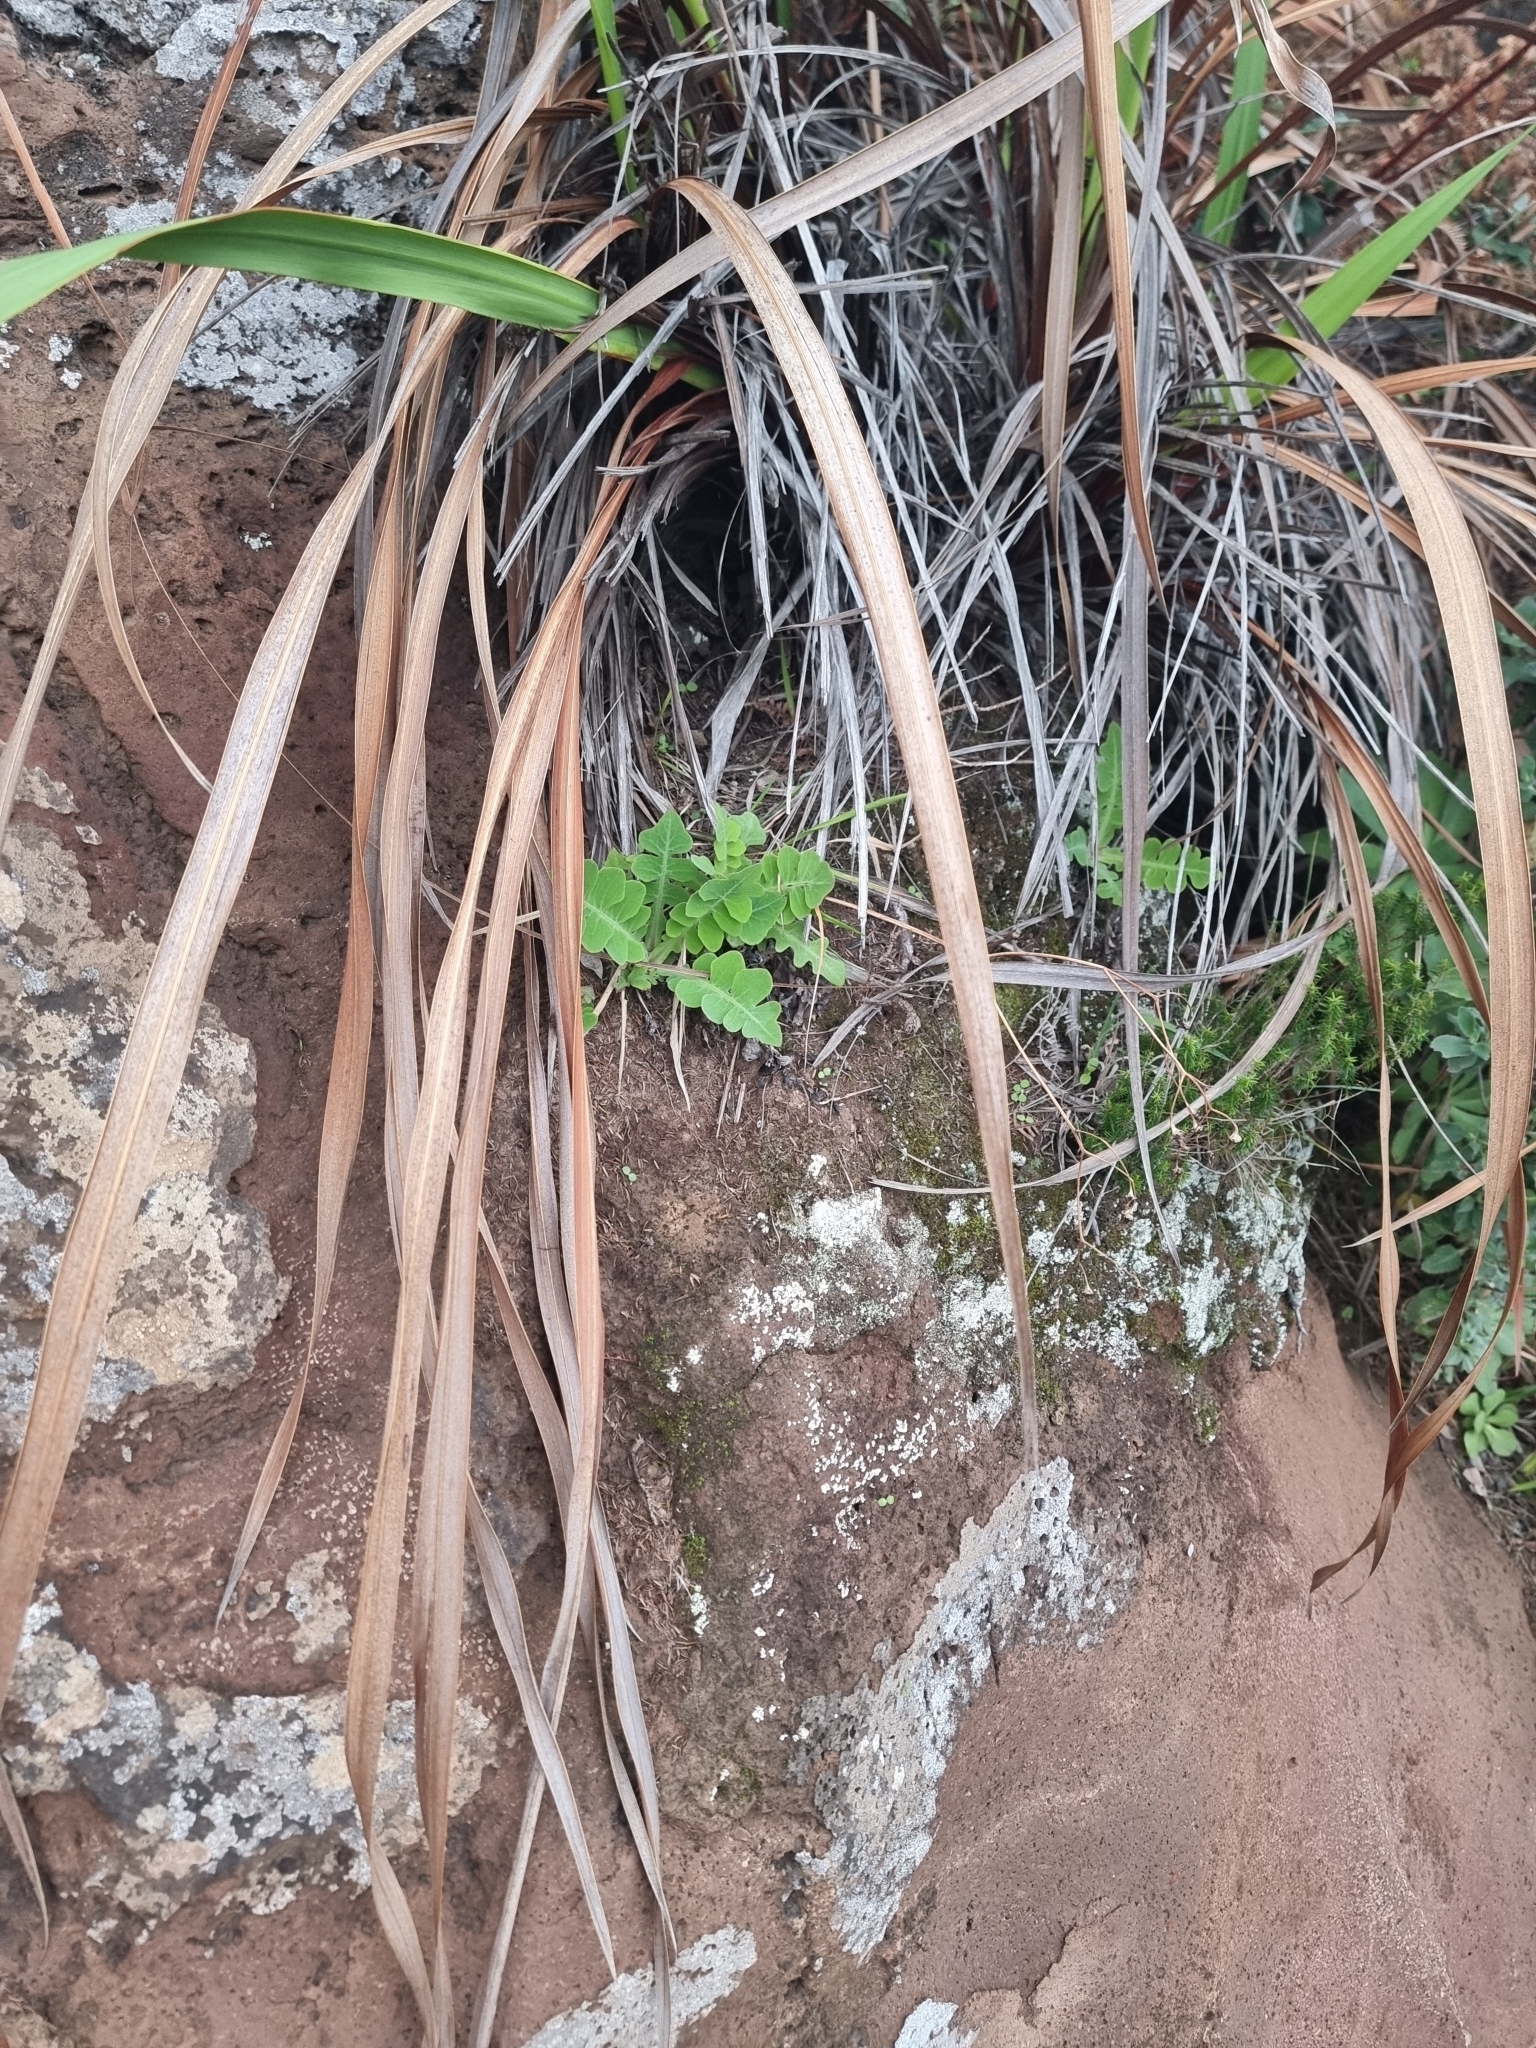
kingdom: Plantae
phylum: Tracheophyta
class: Magnoliopsida
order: Asterales
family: Asteraceae
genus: Sonchus
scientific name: Sonchus latifolius
